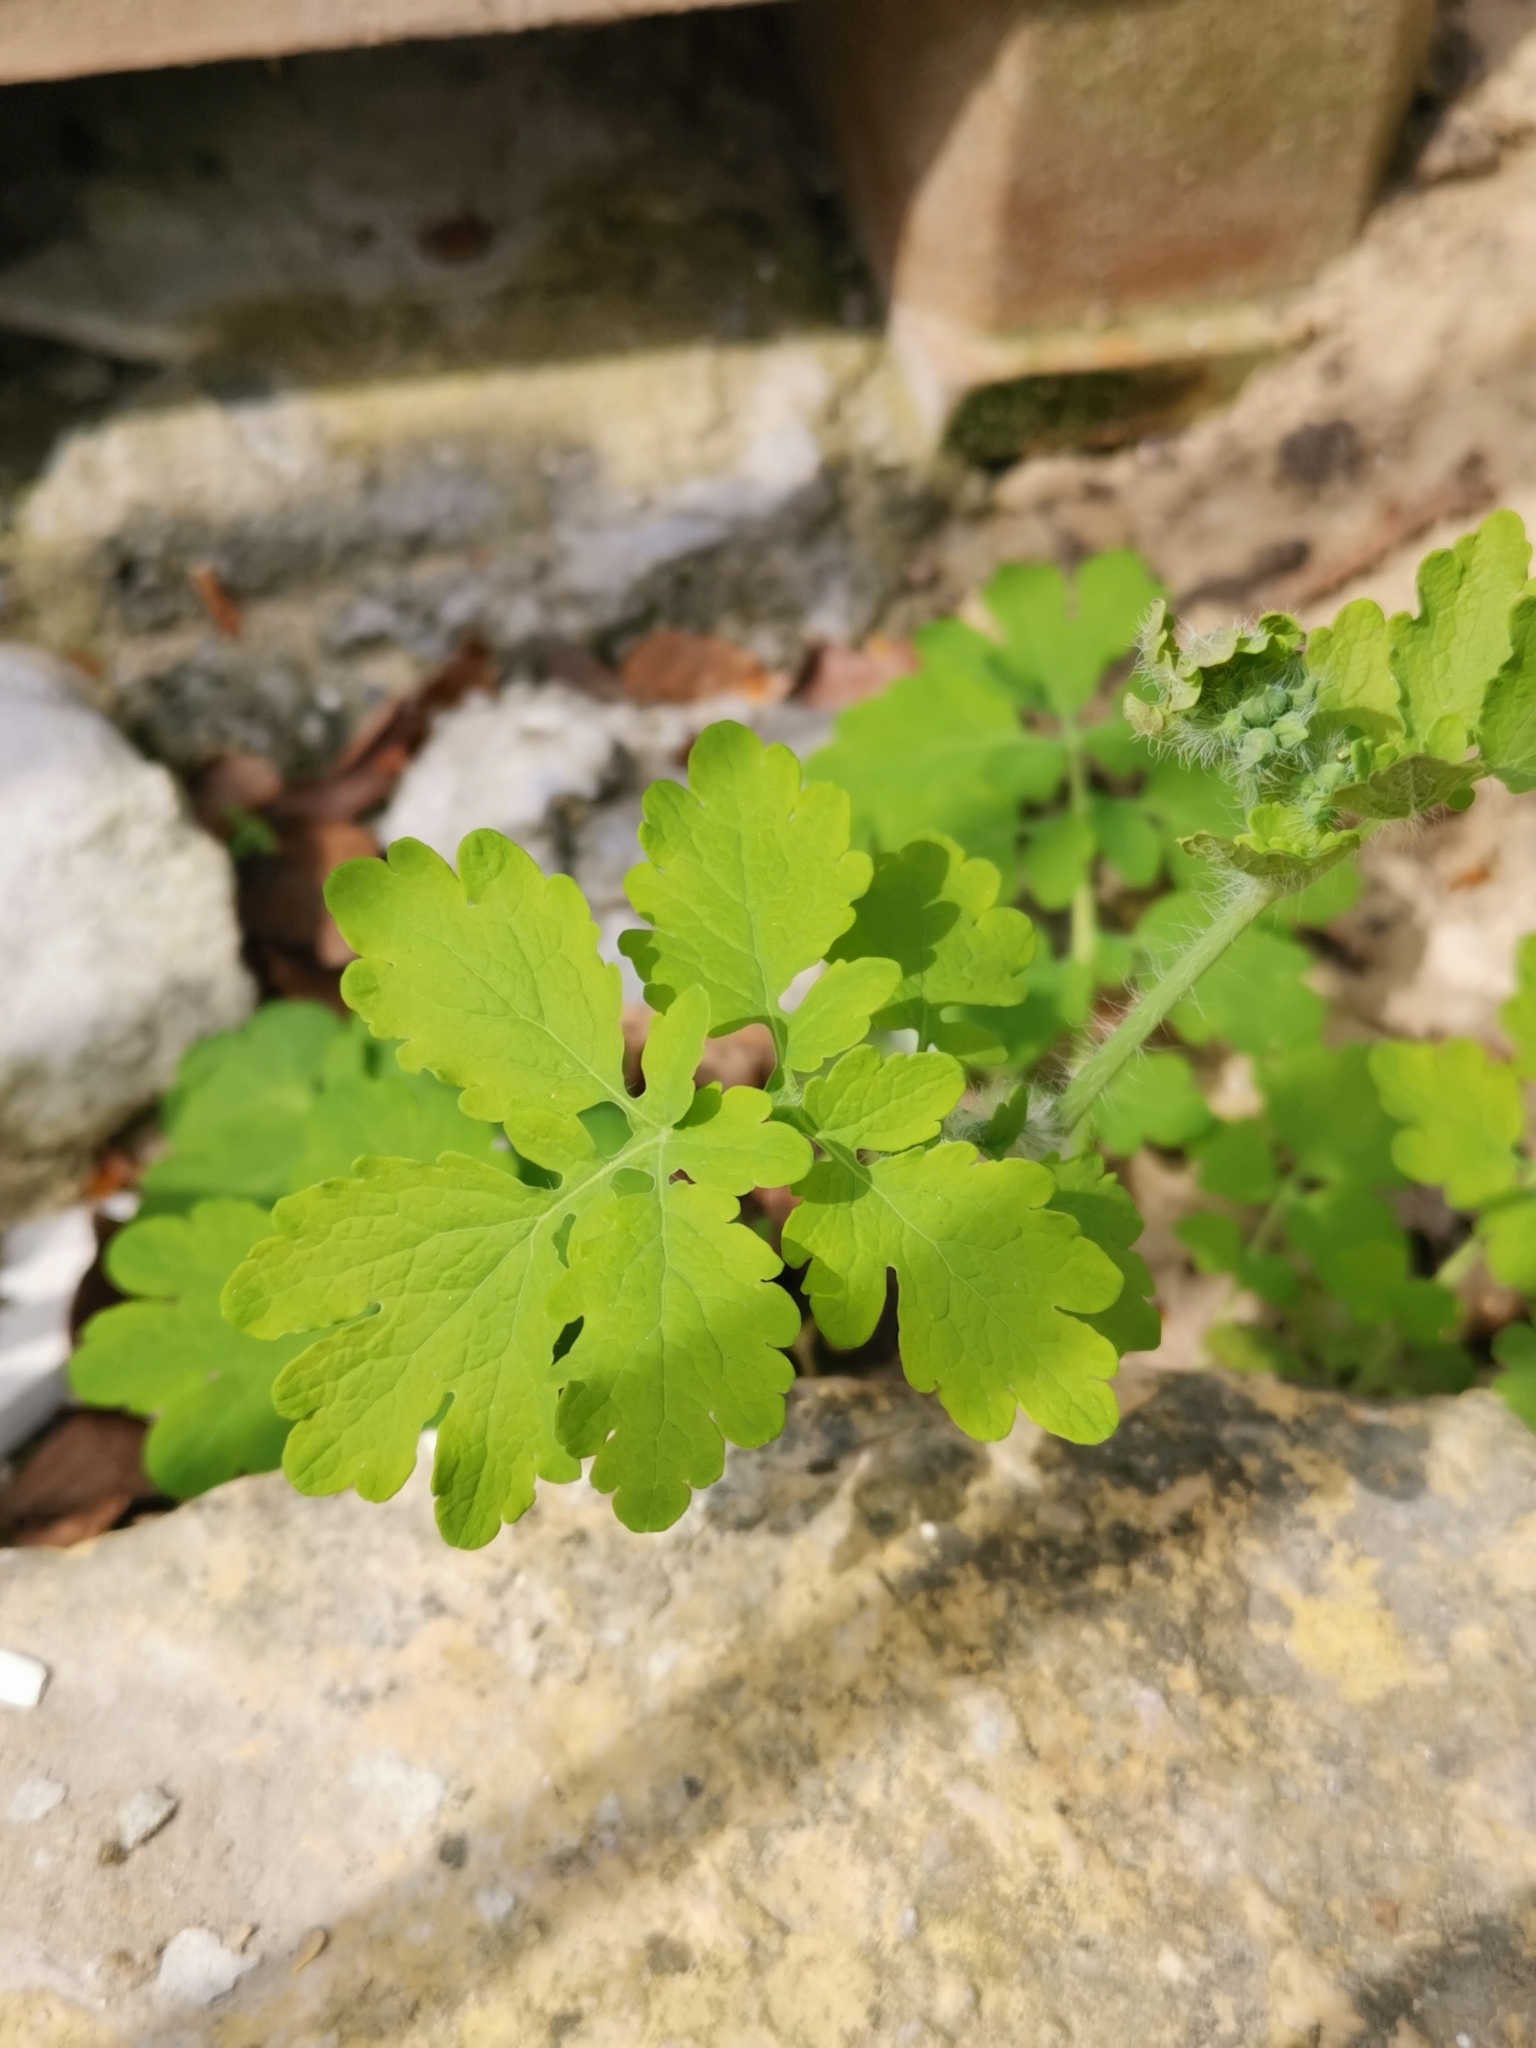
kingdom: Plantae
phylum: Tracheophyta
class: Magnoliopsida
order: Ranunculales
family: Papaveraceae
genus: Chelidonium
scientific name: Chelidonium majus
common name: Greater celandine
